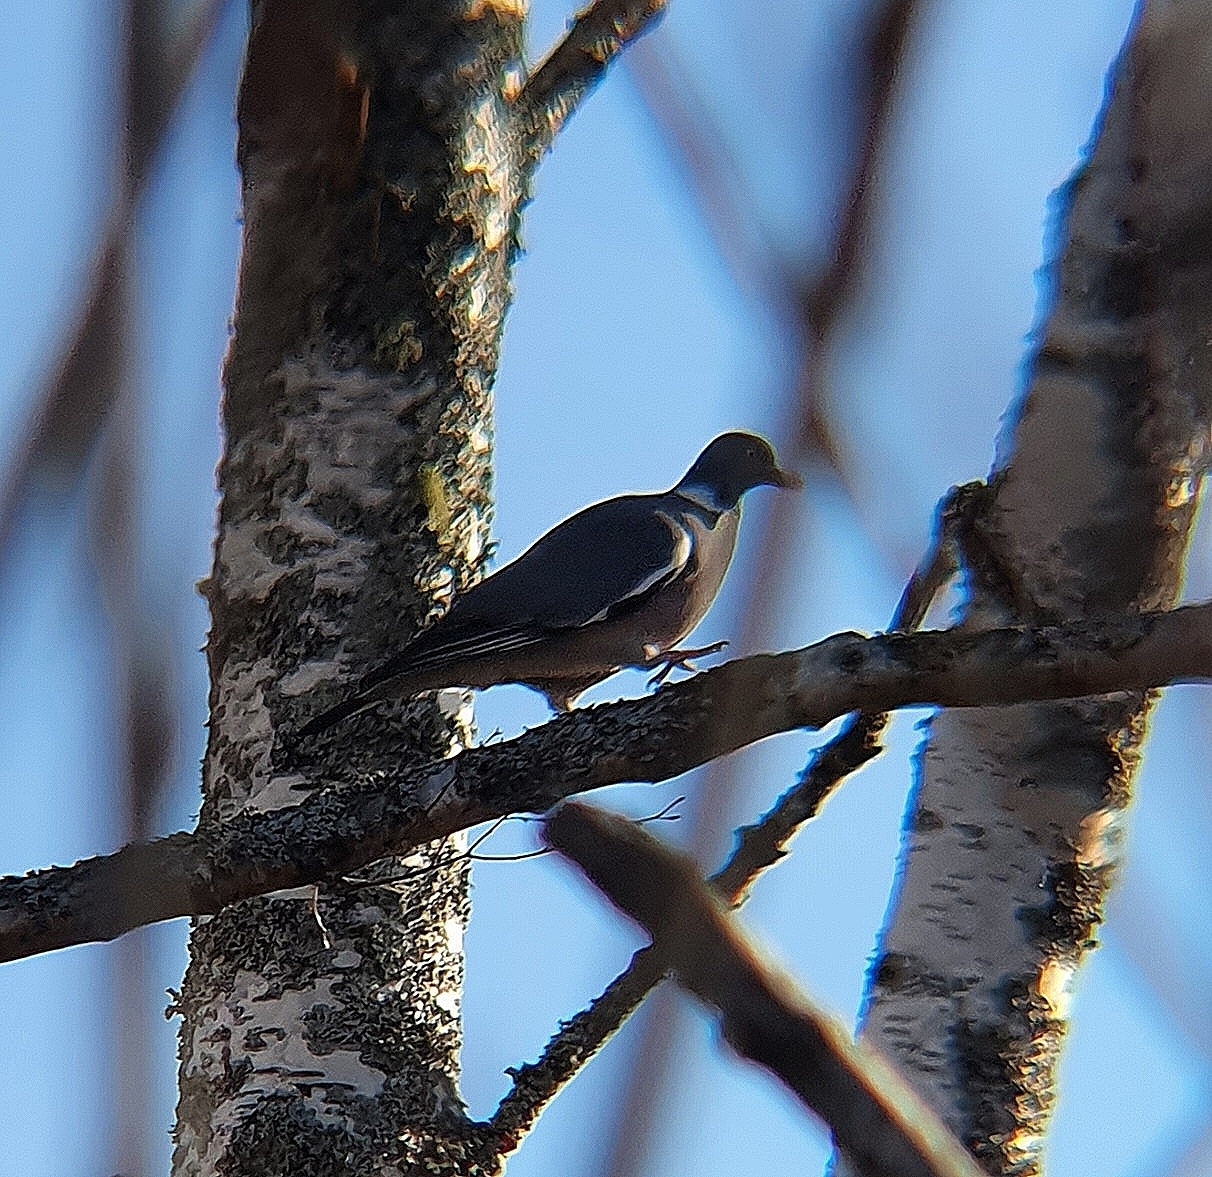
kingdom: Animalia
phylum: Chordata
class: Aves
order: Columbiformes
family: Columbidae
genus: Columba
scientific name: Columba palumbus
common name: Common wood pigeon
